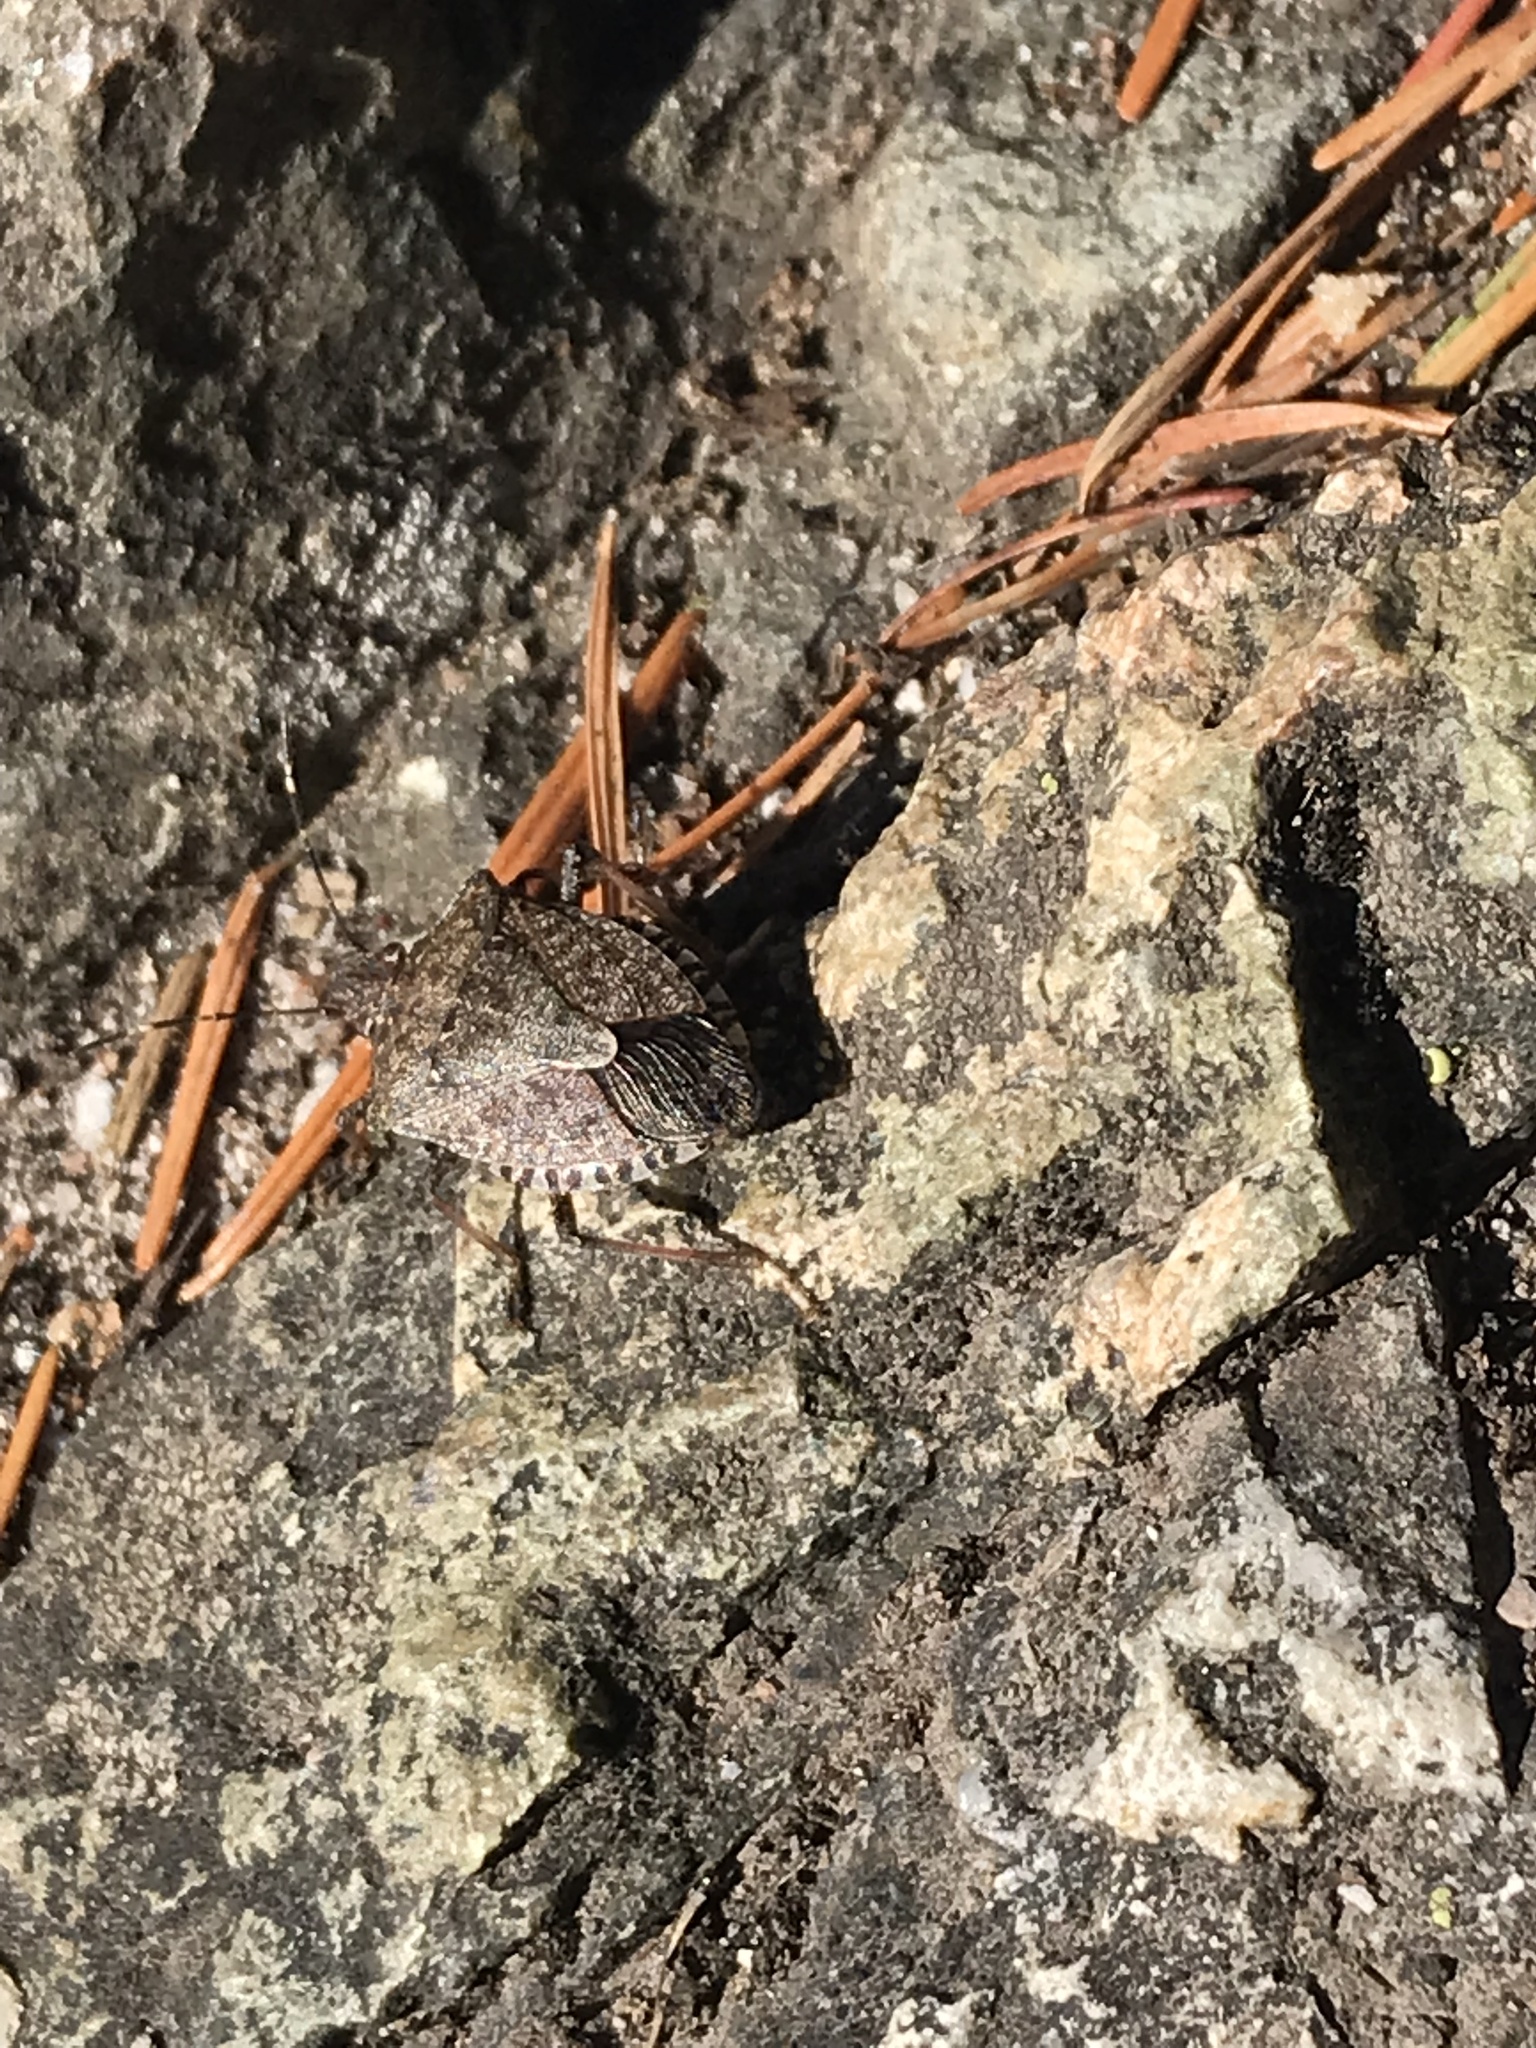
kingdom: Animalia
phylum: Arthropoda
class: Insecta
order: Hemiptera
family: Pentatomidae
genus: Halyomorpha
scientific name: Halyomorpha halys
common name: Brown marmorated stink bug
